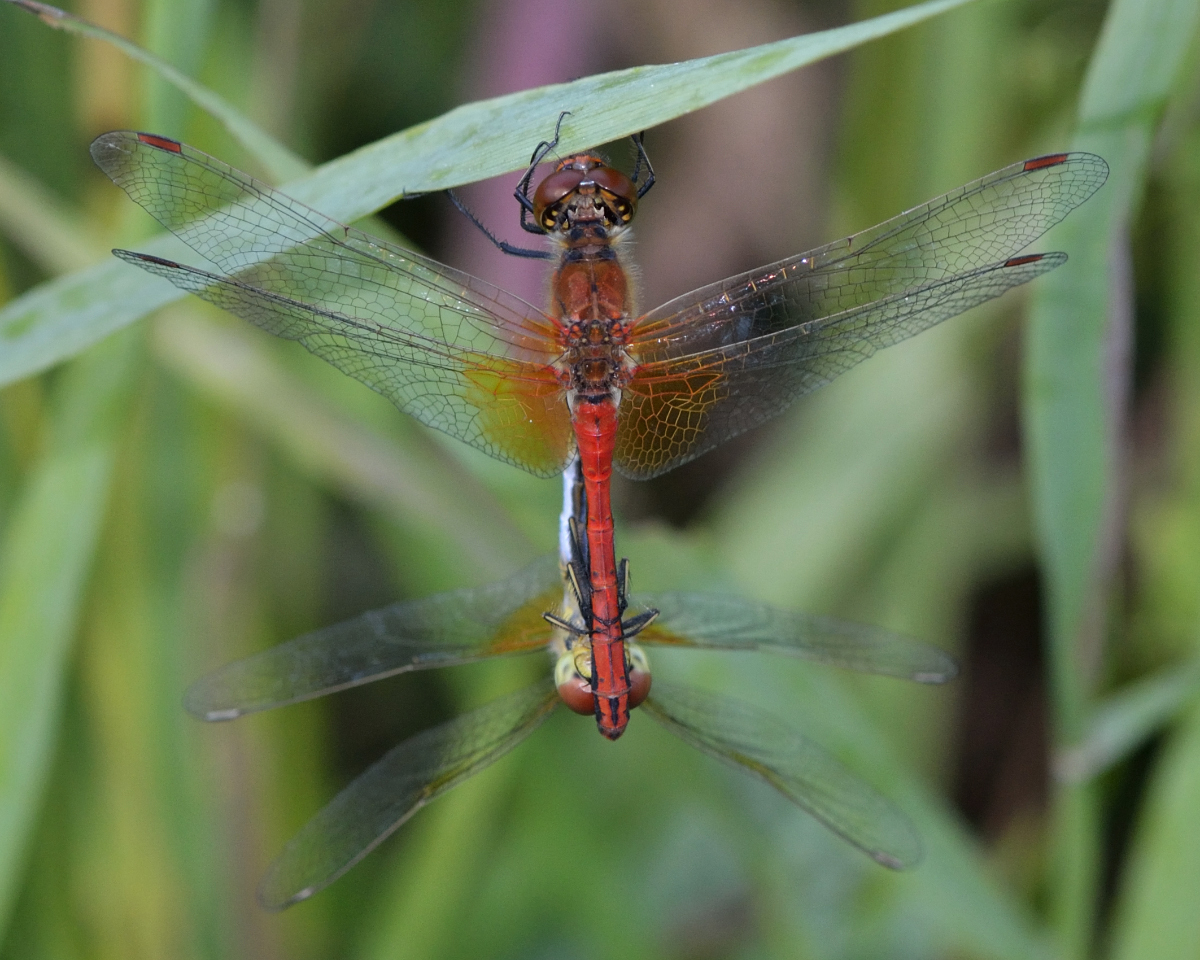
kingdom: Animalia
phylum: Arthropoda
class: Insecta
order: Odonata
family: Libellulidae
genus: Sympetrum
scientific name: Sympetrum flaveolum
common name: Yellow-winged darter
